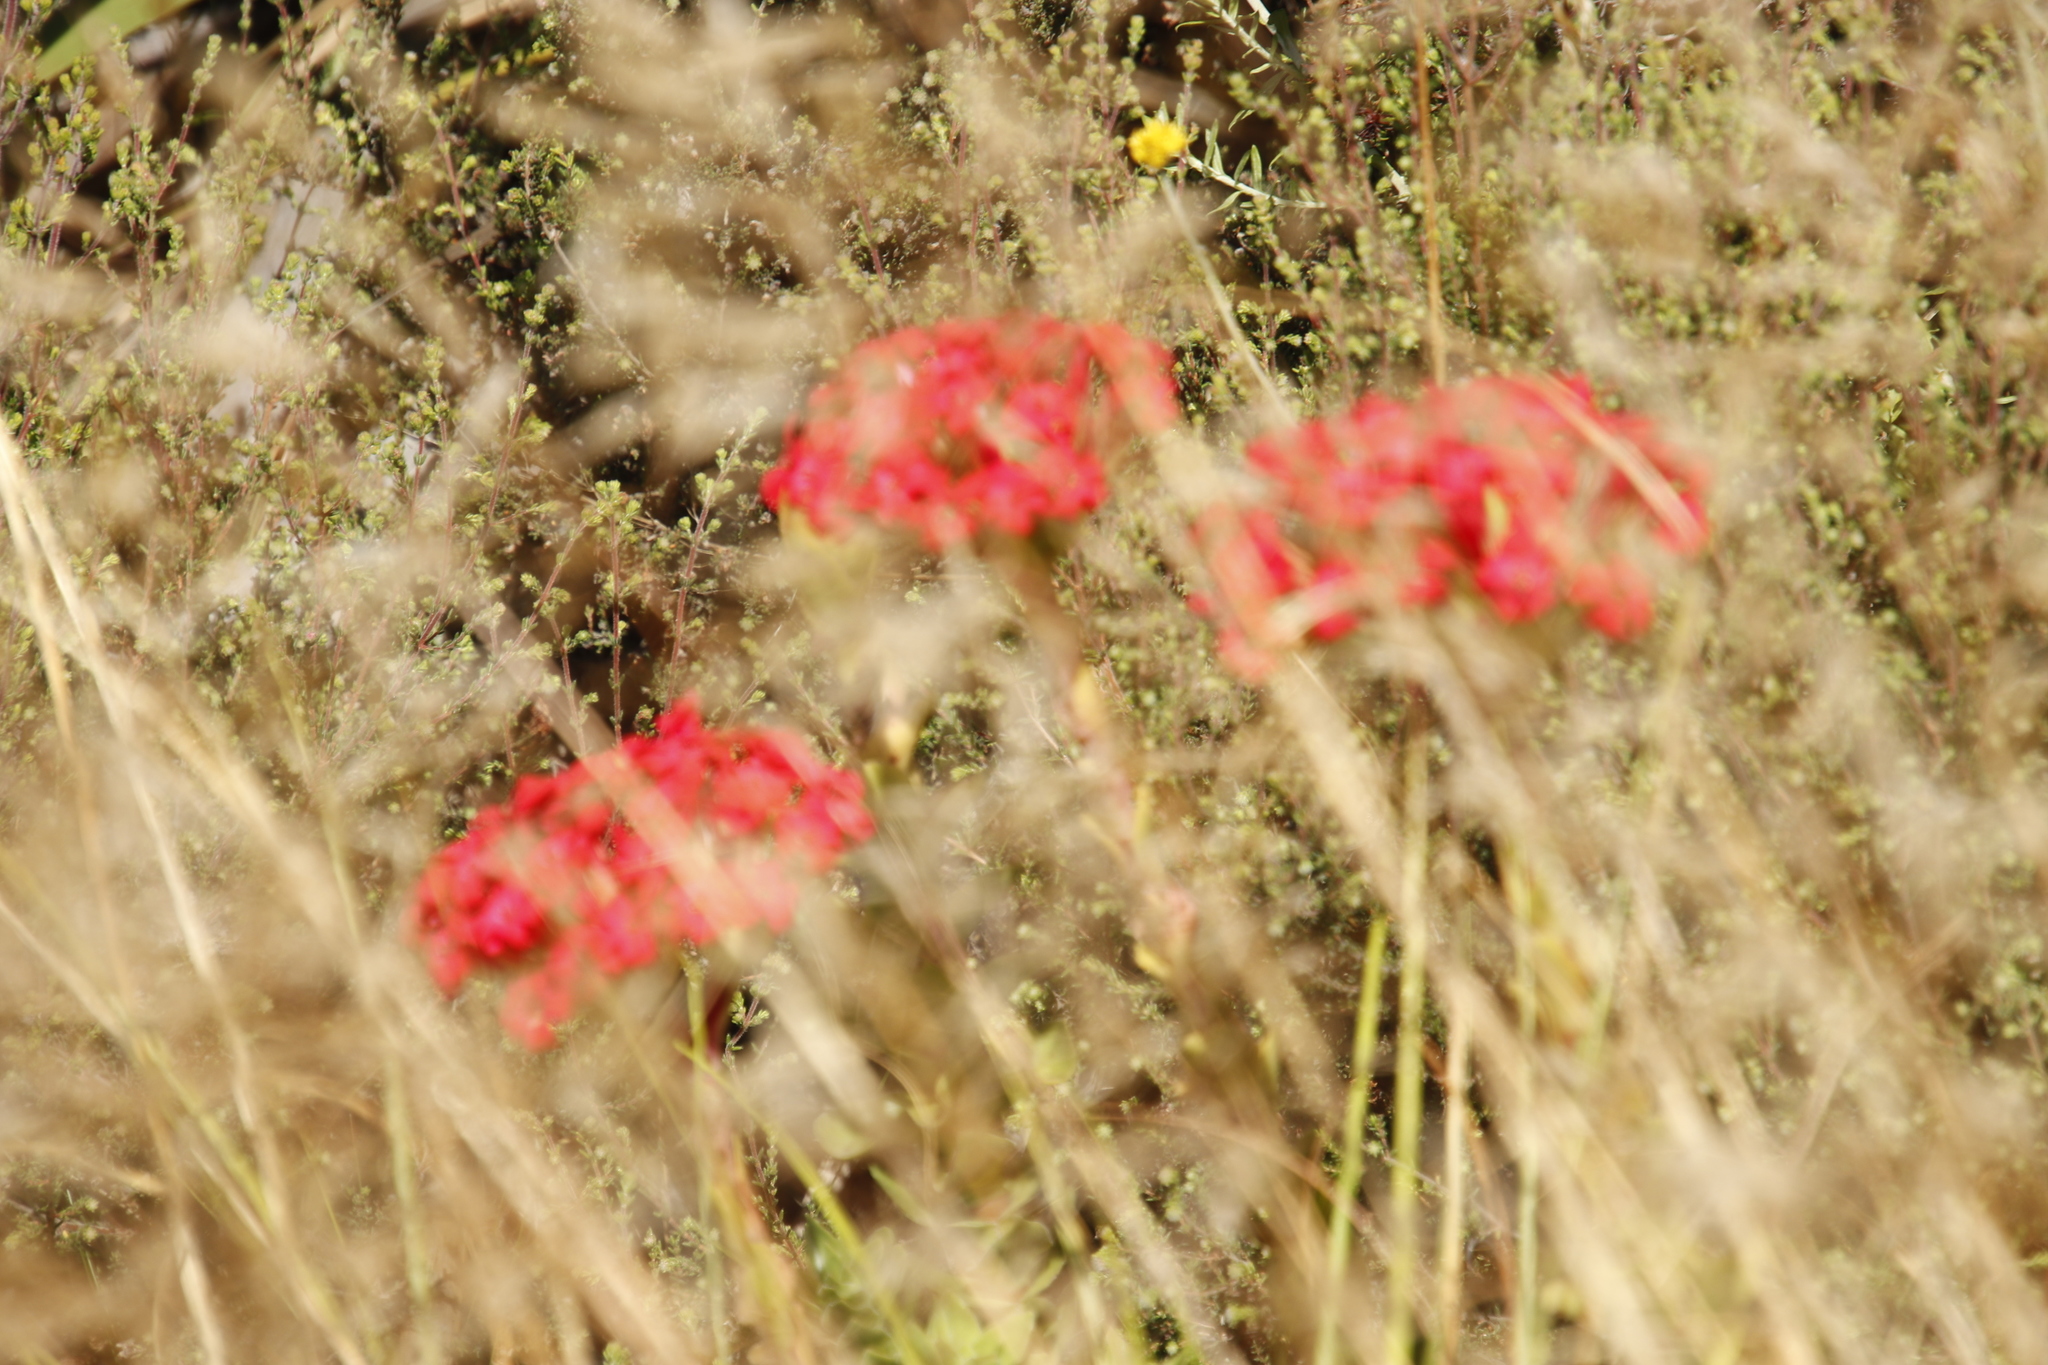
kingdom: Plantae
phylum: Tracheophyta
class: Magnoliopsida
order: Saxifragales
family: Crassulaceae
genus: Crassula
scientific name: Crassula coccinea
